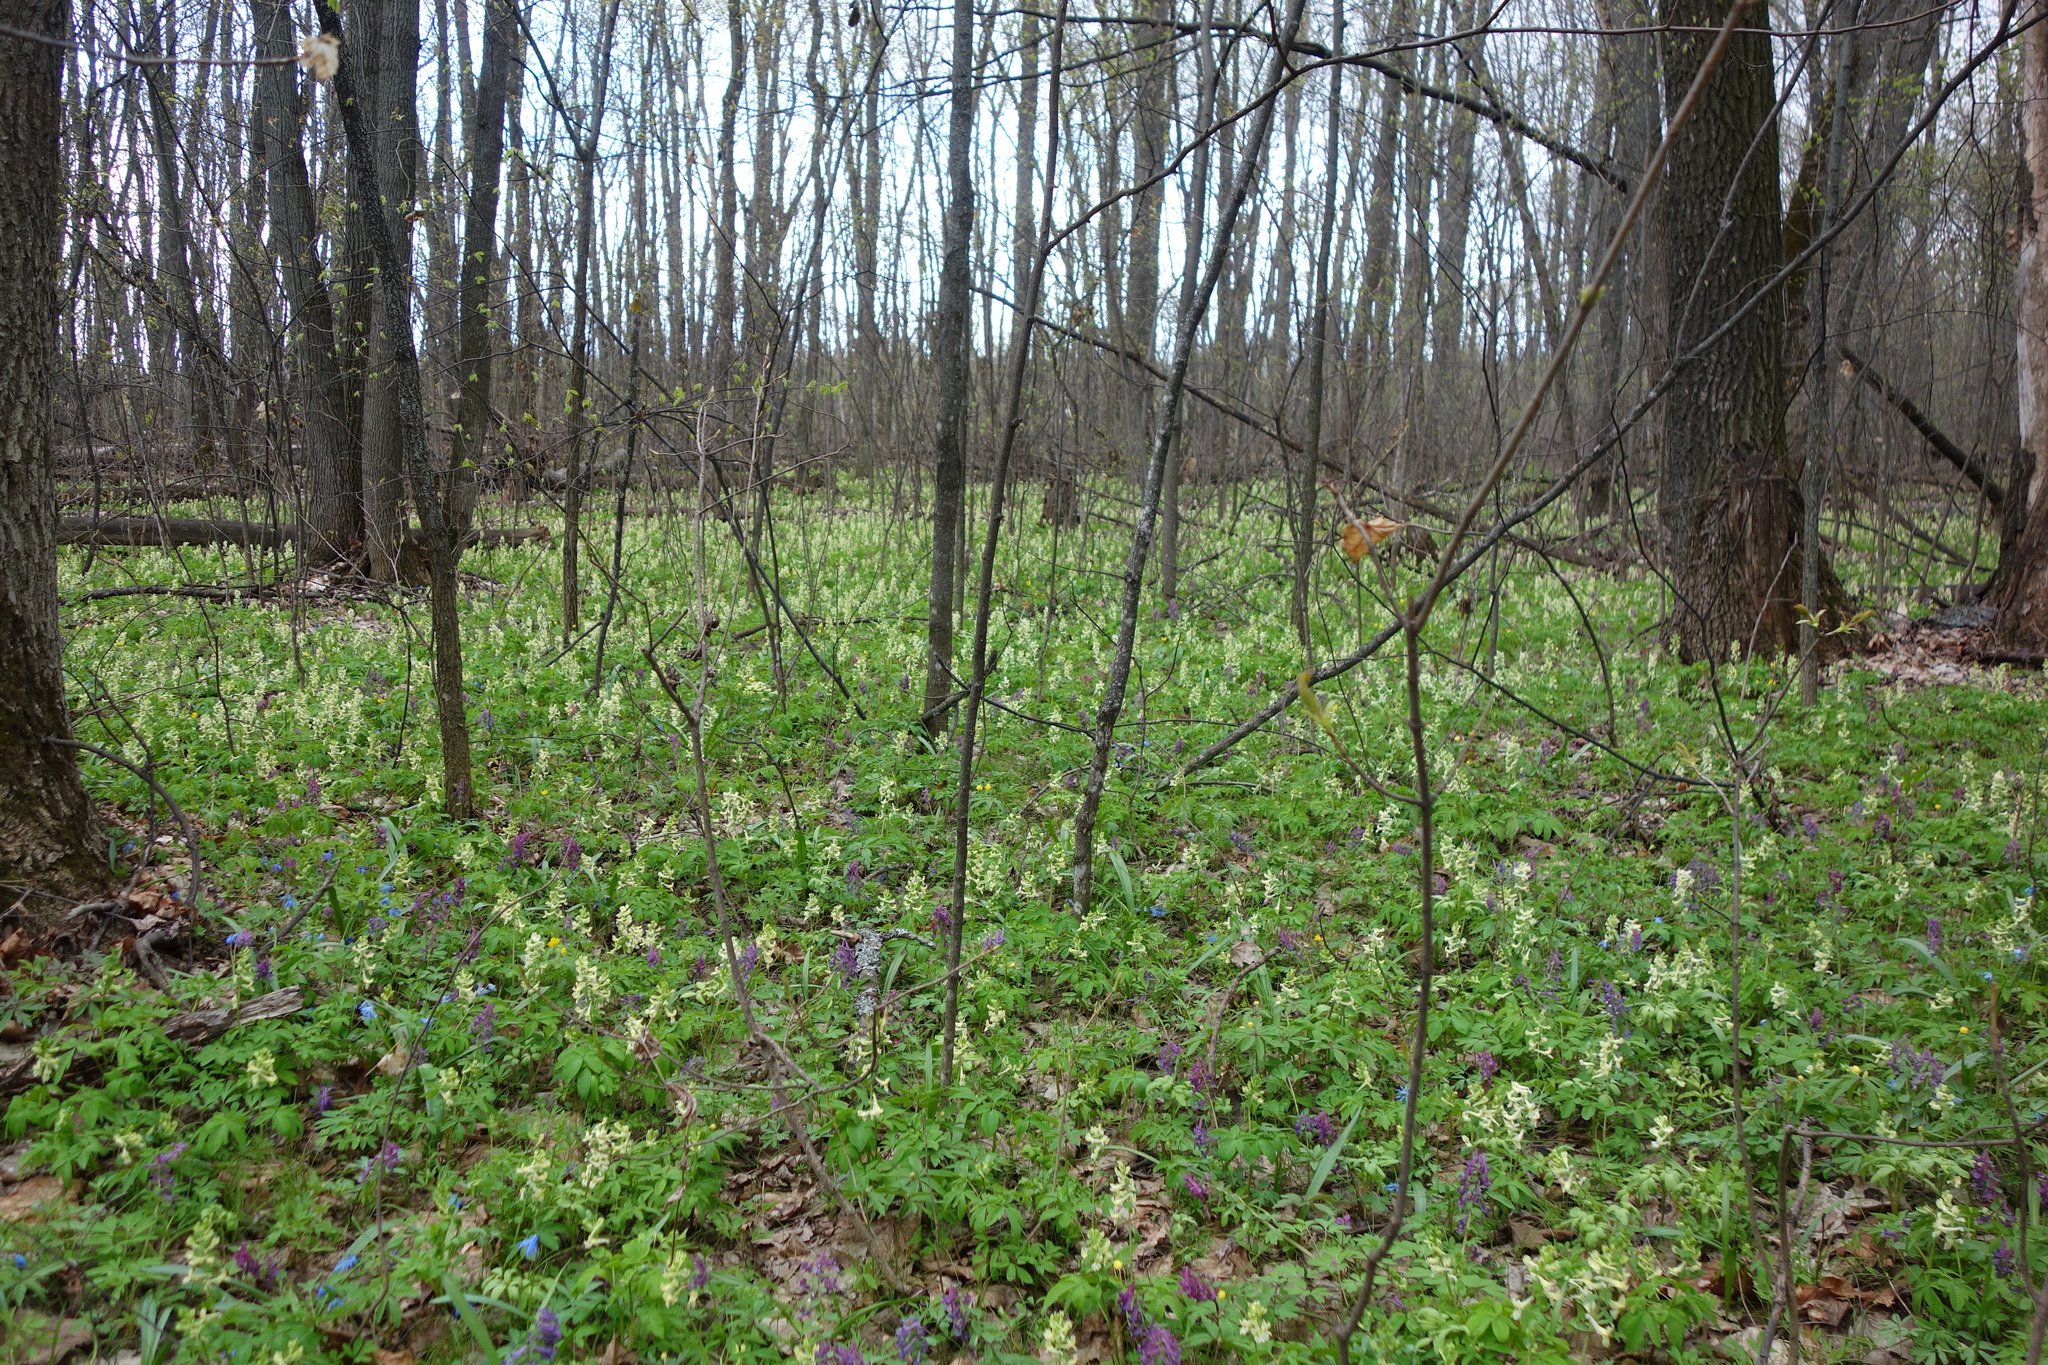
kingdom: Plantae
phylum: Tracheophyta
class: Magnoliopsida
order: Ranunculales
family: Papaveraceae
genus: Corydalis
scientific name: Corydalis cava
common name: Hollowroot
